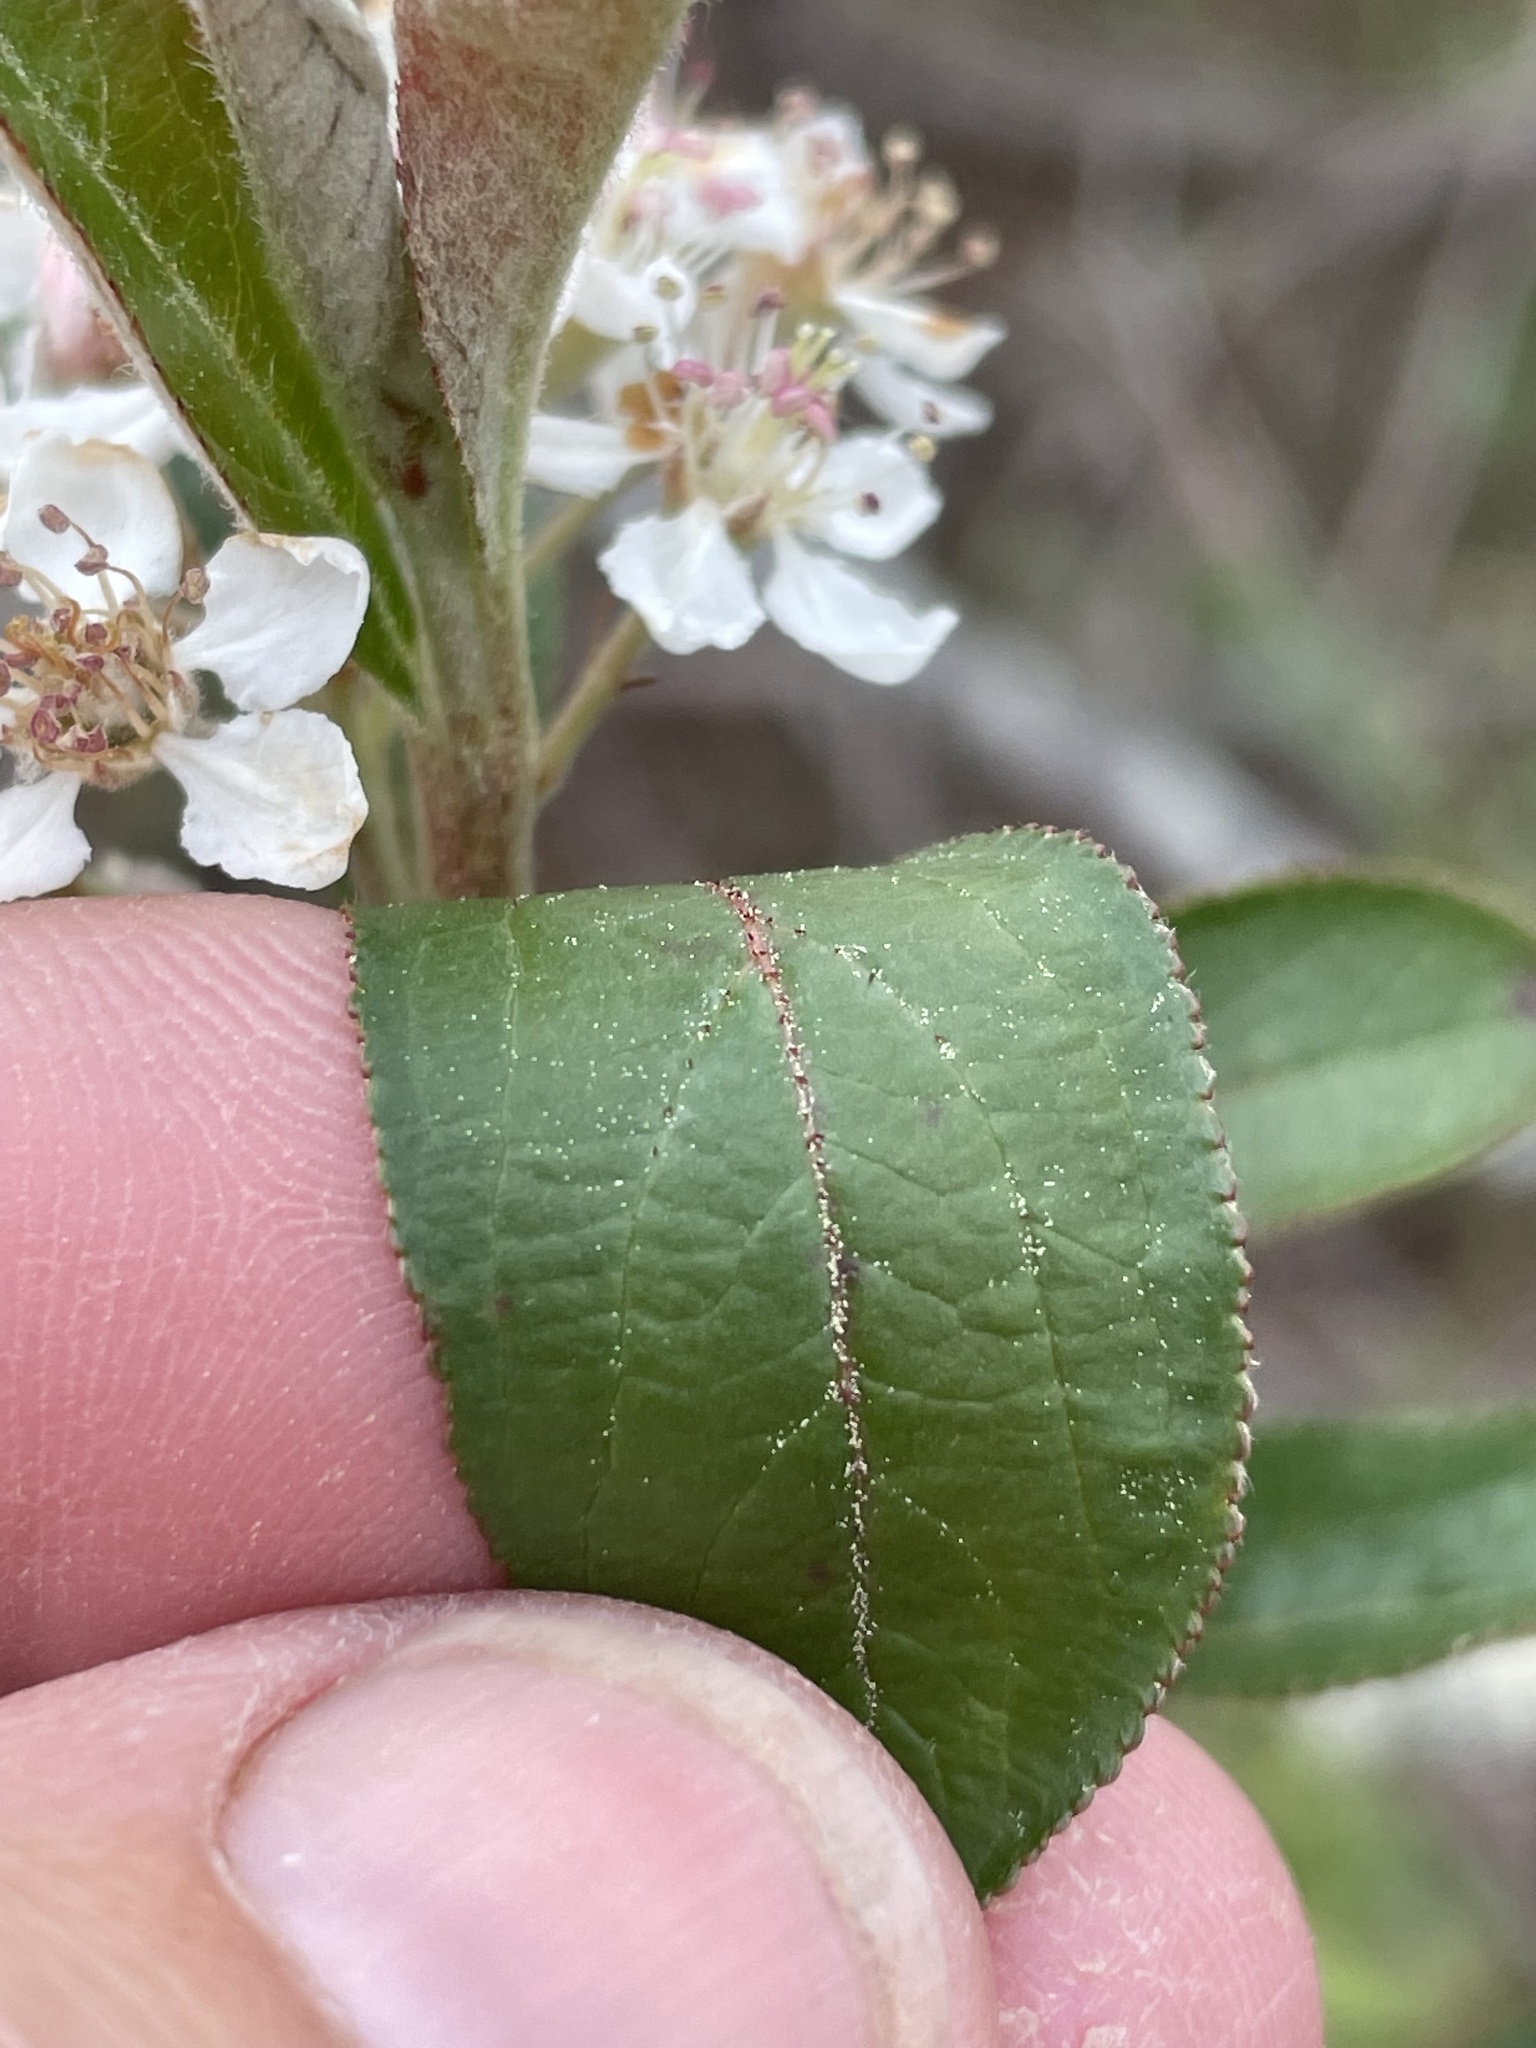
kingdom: Plantae
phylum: Tracheophyta
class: Magnoliopsida
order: Rosales
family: Rosaceae
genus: Aronia
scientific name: Aronia arbutifolia
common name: Red chokeberry
